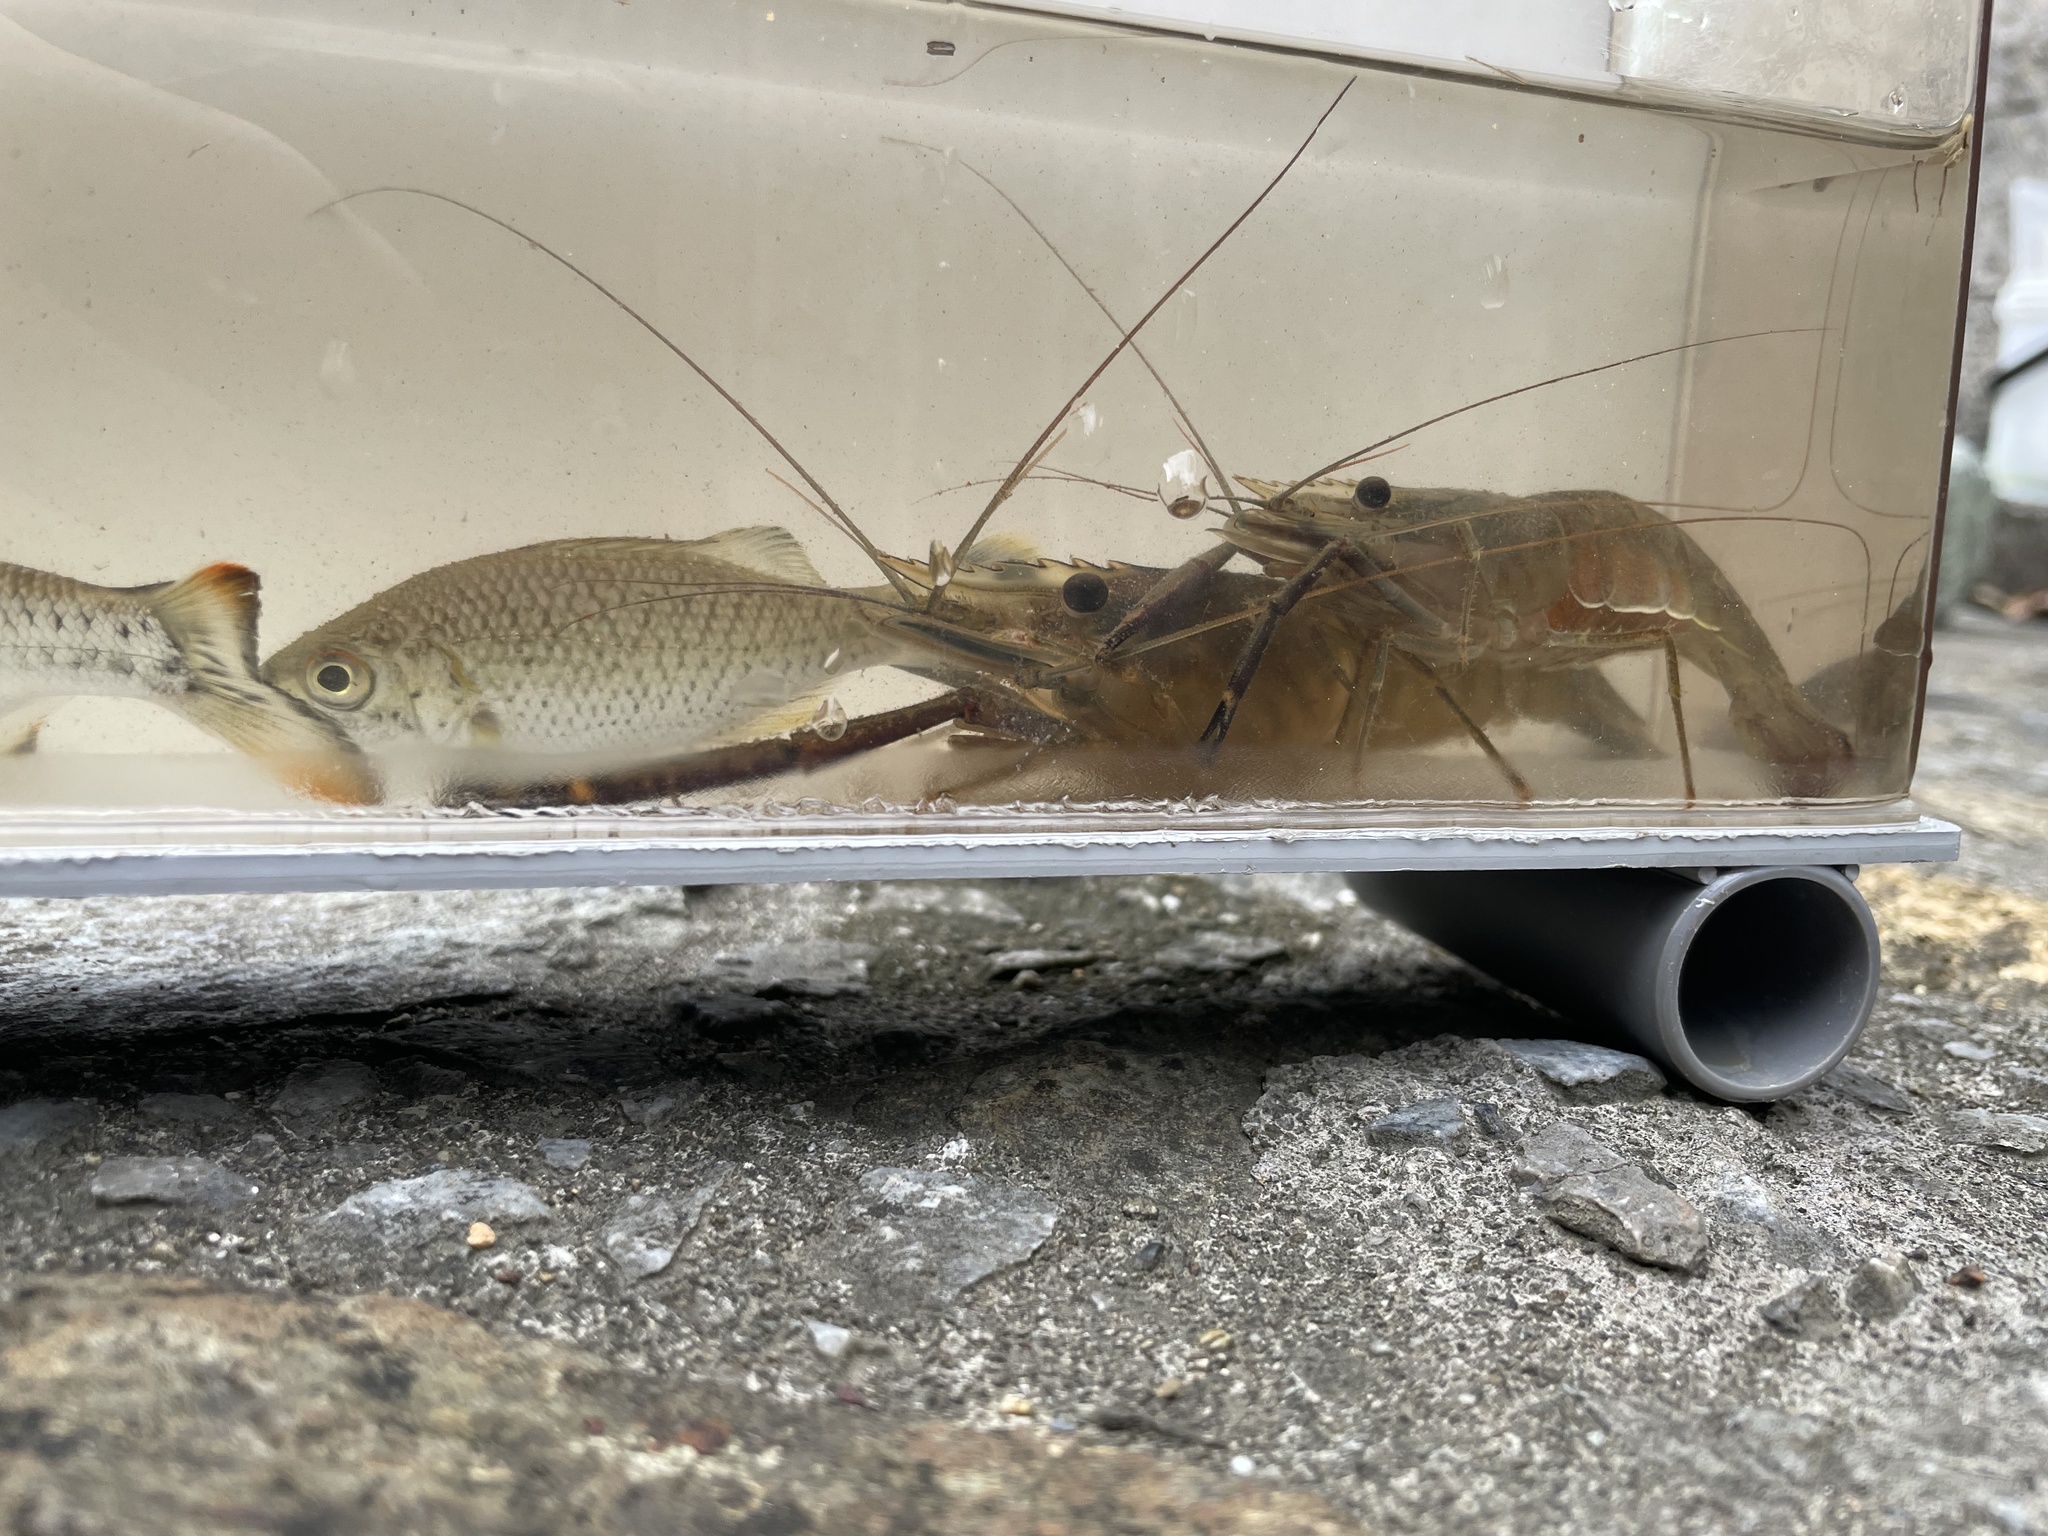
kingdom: Animalia
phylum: Chordata
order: Perciformes
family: Kuhliidae
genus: Kuhlia
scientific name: Kuhlia marginata
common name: Spotted flagtail
